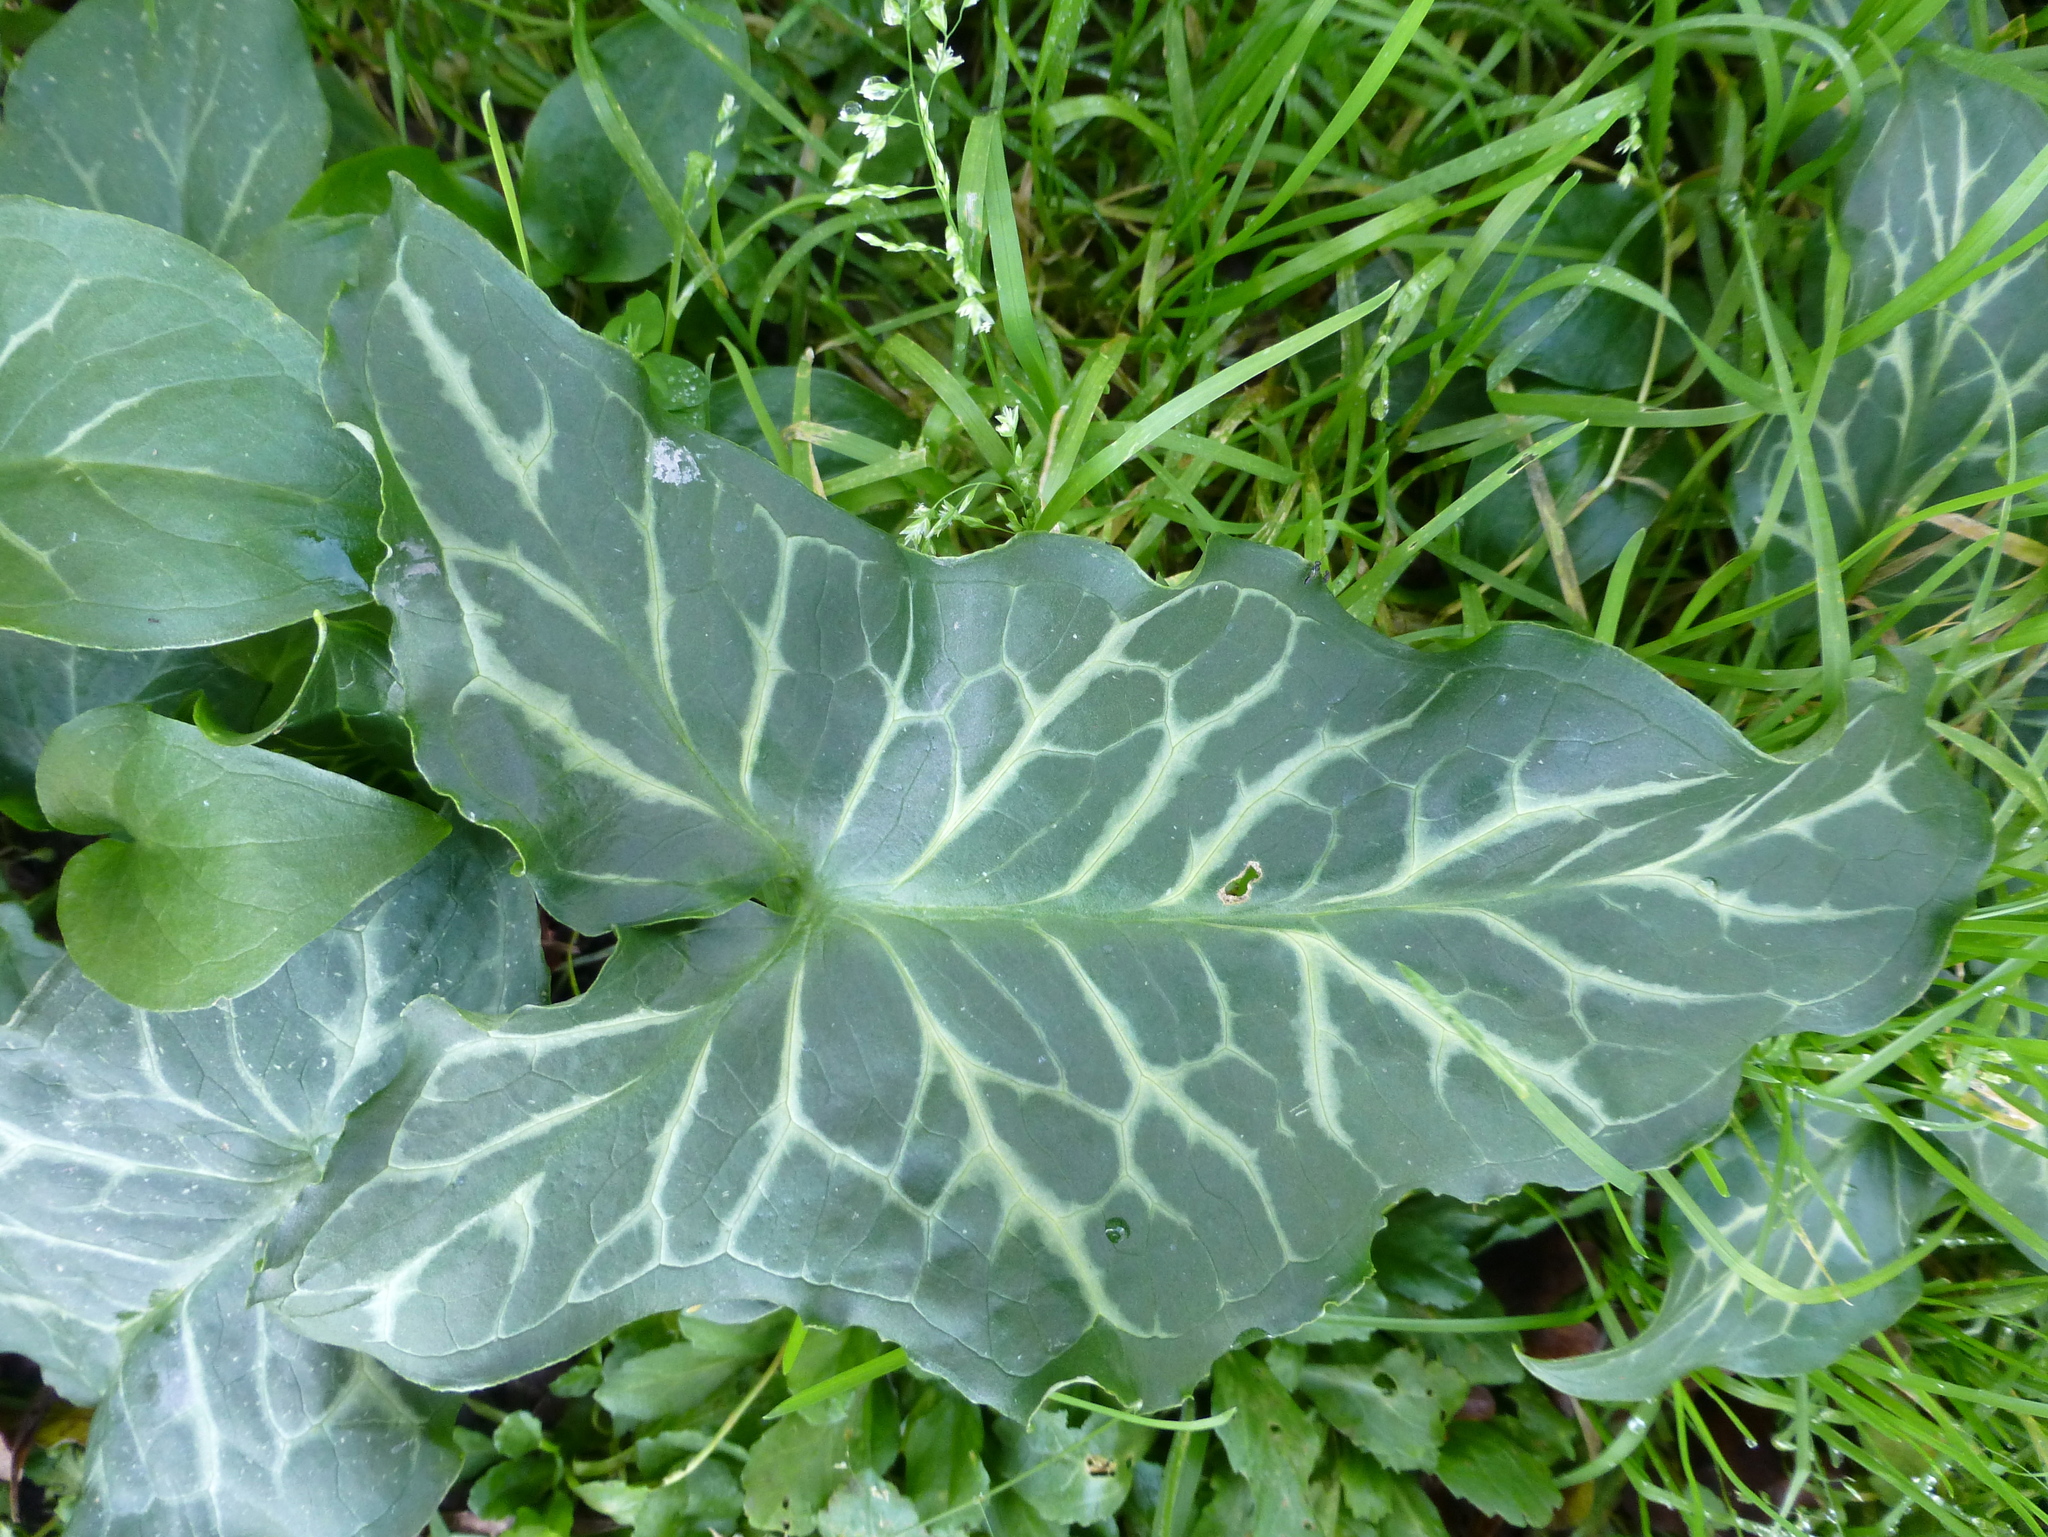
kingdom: Plantae
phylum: Tracheophyta
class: Liliopsida
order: Alismatales
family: Araceae
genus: Arum
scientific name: Arum italicum
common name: Italian lords-and-ladies
